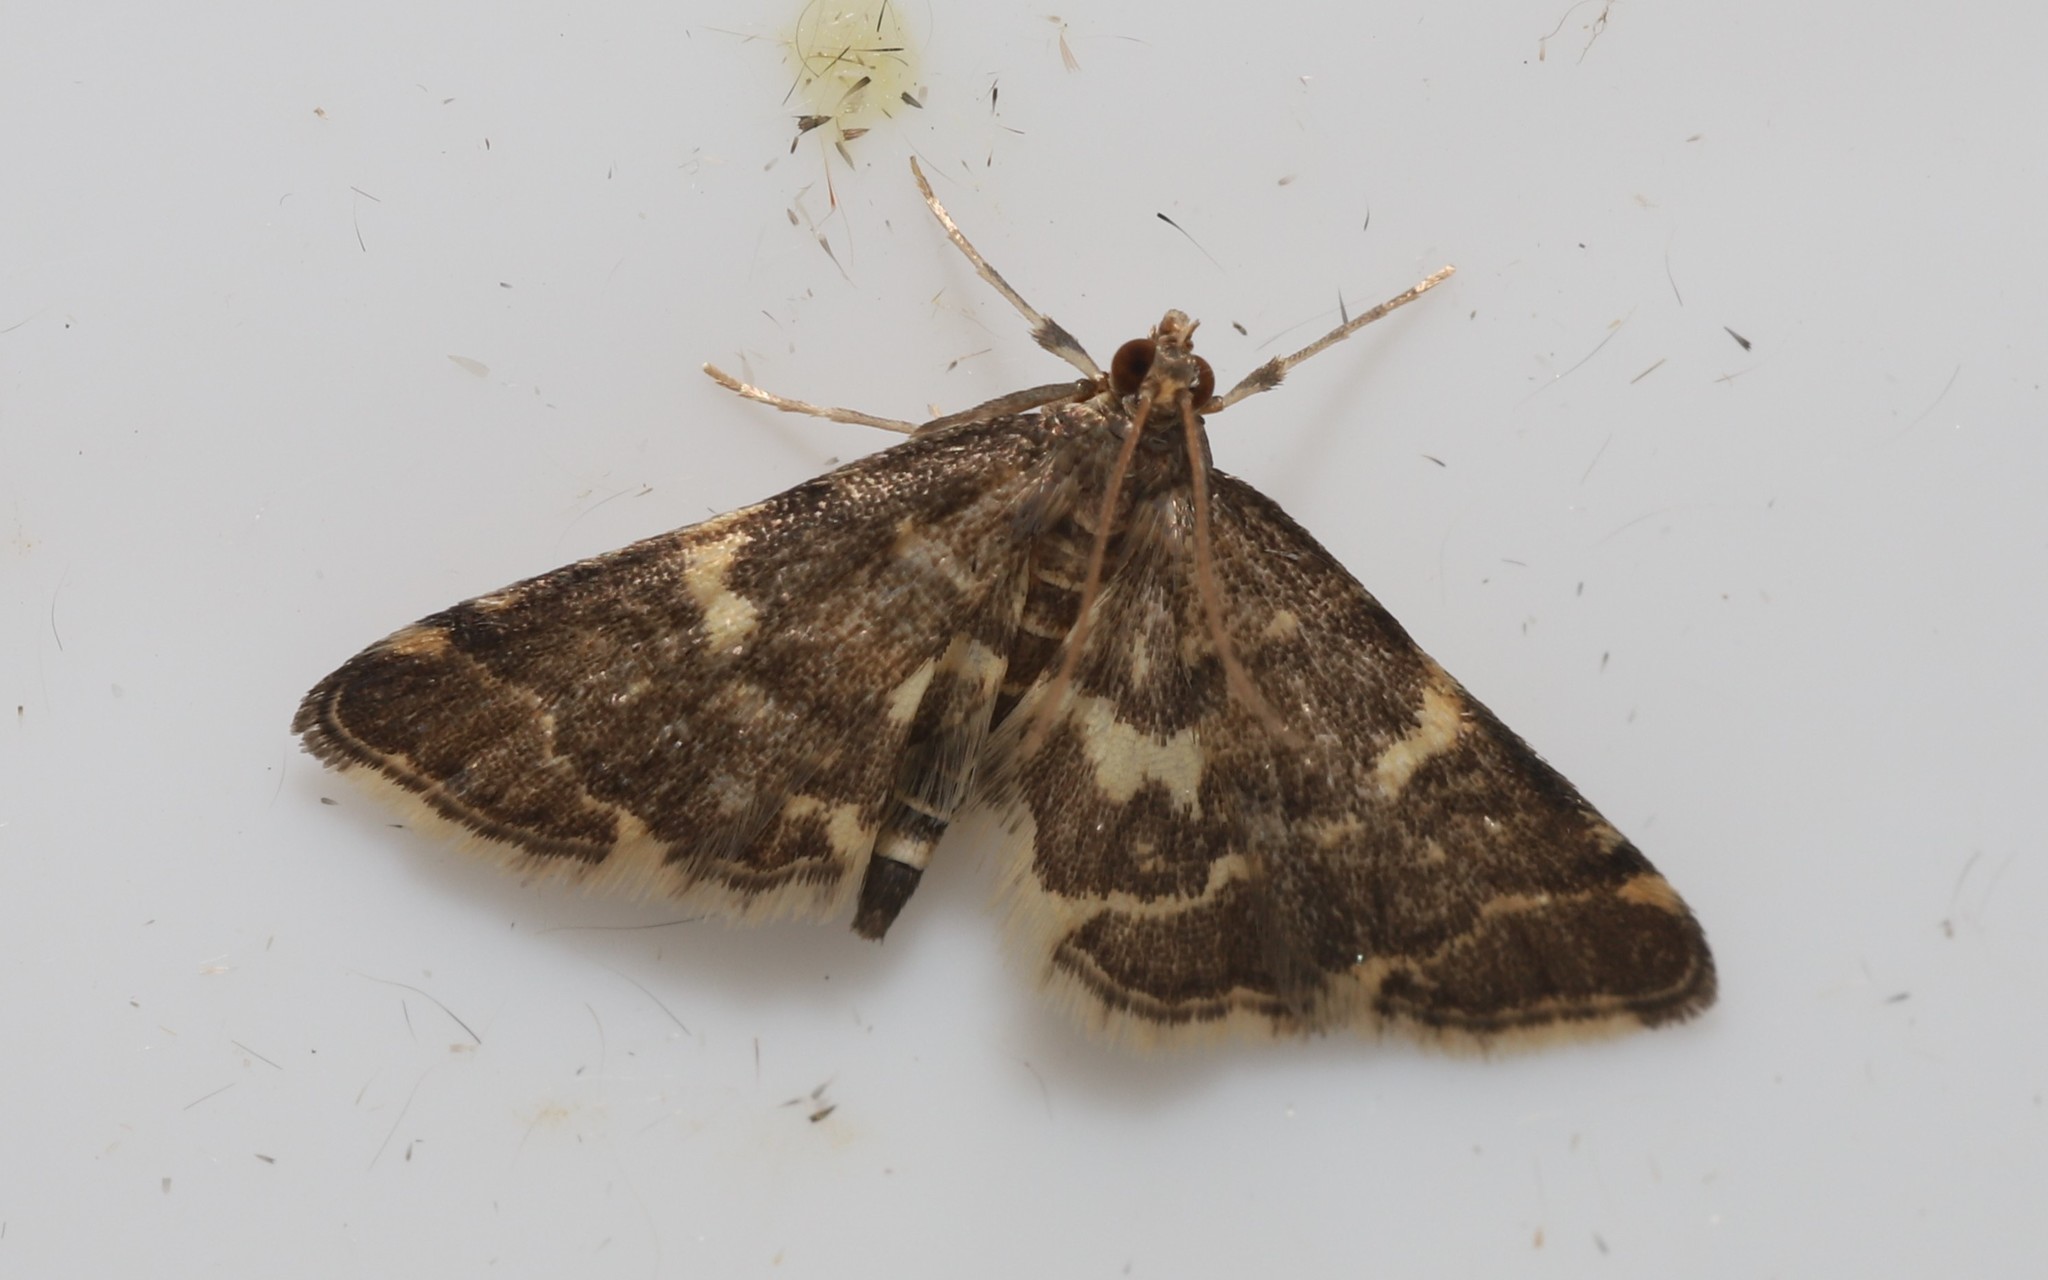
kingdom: Animalia
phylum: Arthropoda
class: Insecta
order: Lepidoptera
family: Crambidae
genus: Anageshna
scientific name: Anageshna primordialis
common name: Yellow-spotted webworm moth
